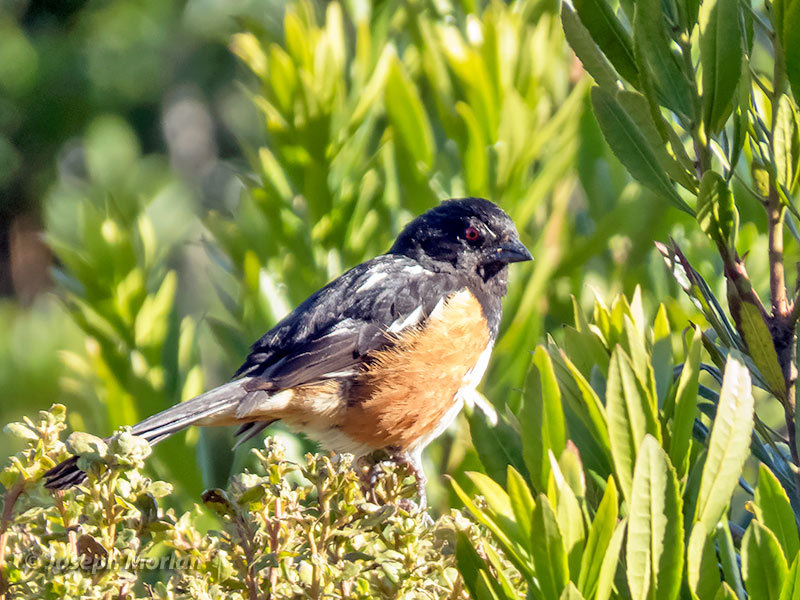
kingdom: Animalia
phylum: Chordata
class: Aves
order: Passeriformes
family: Passerellidae
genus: Pipilo
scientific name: Pipilo maculatus
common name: Spotted towhee
